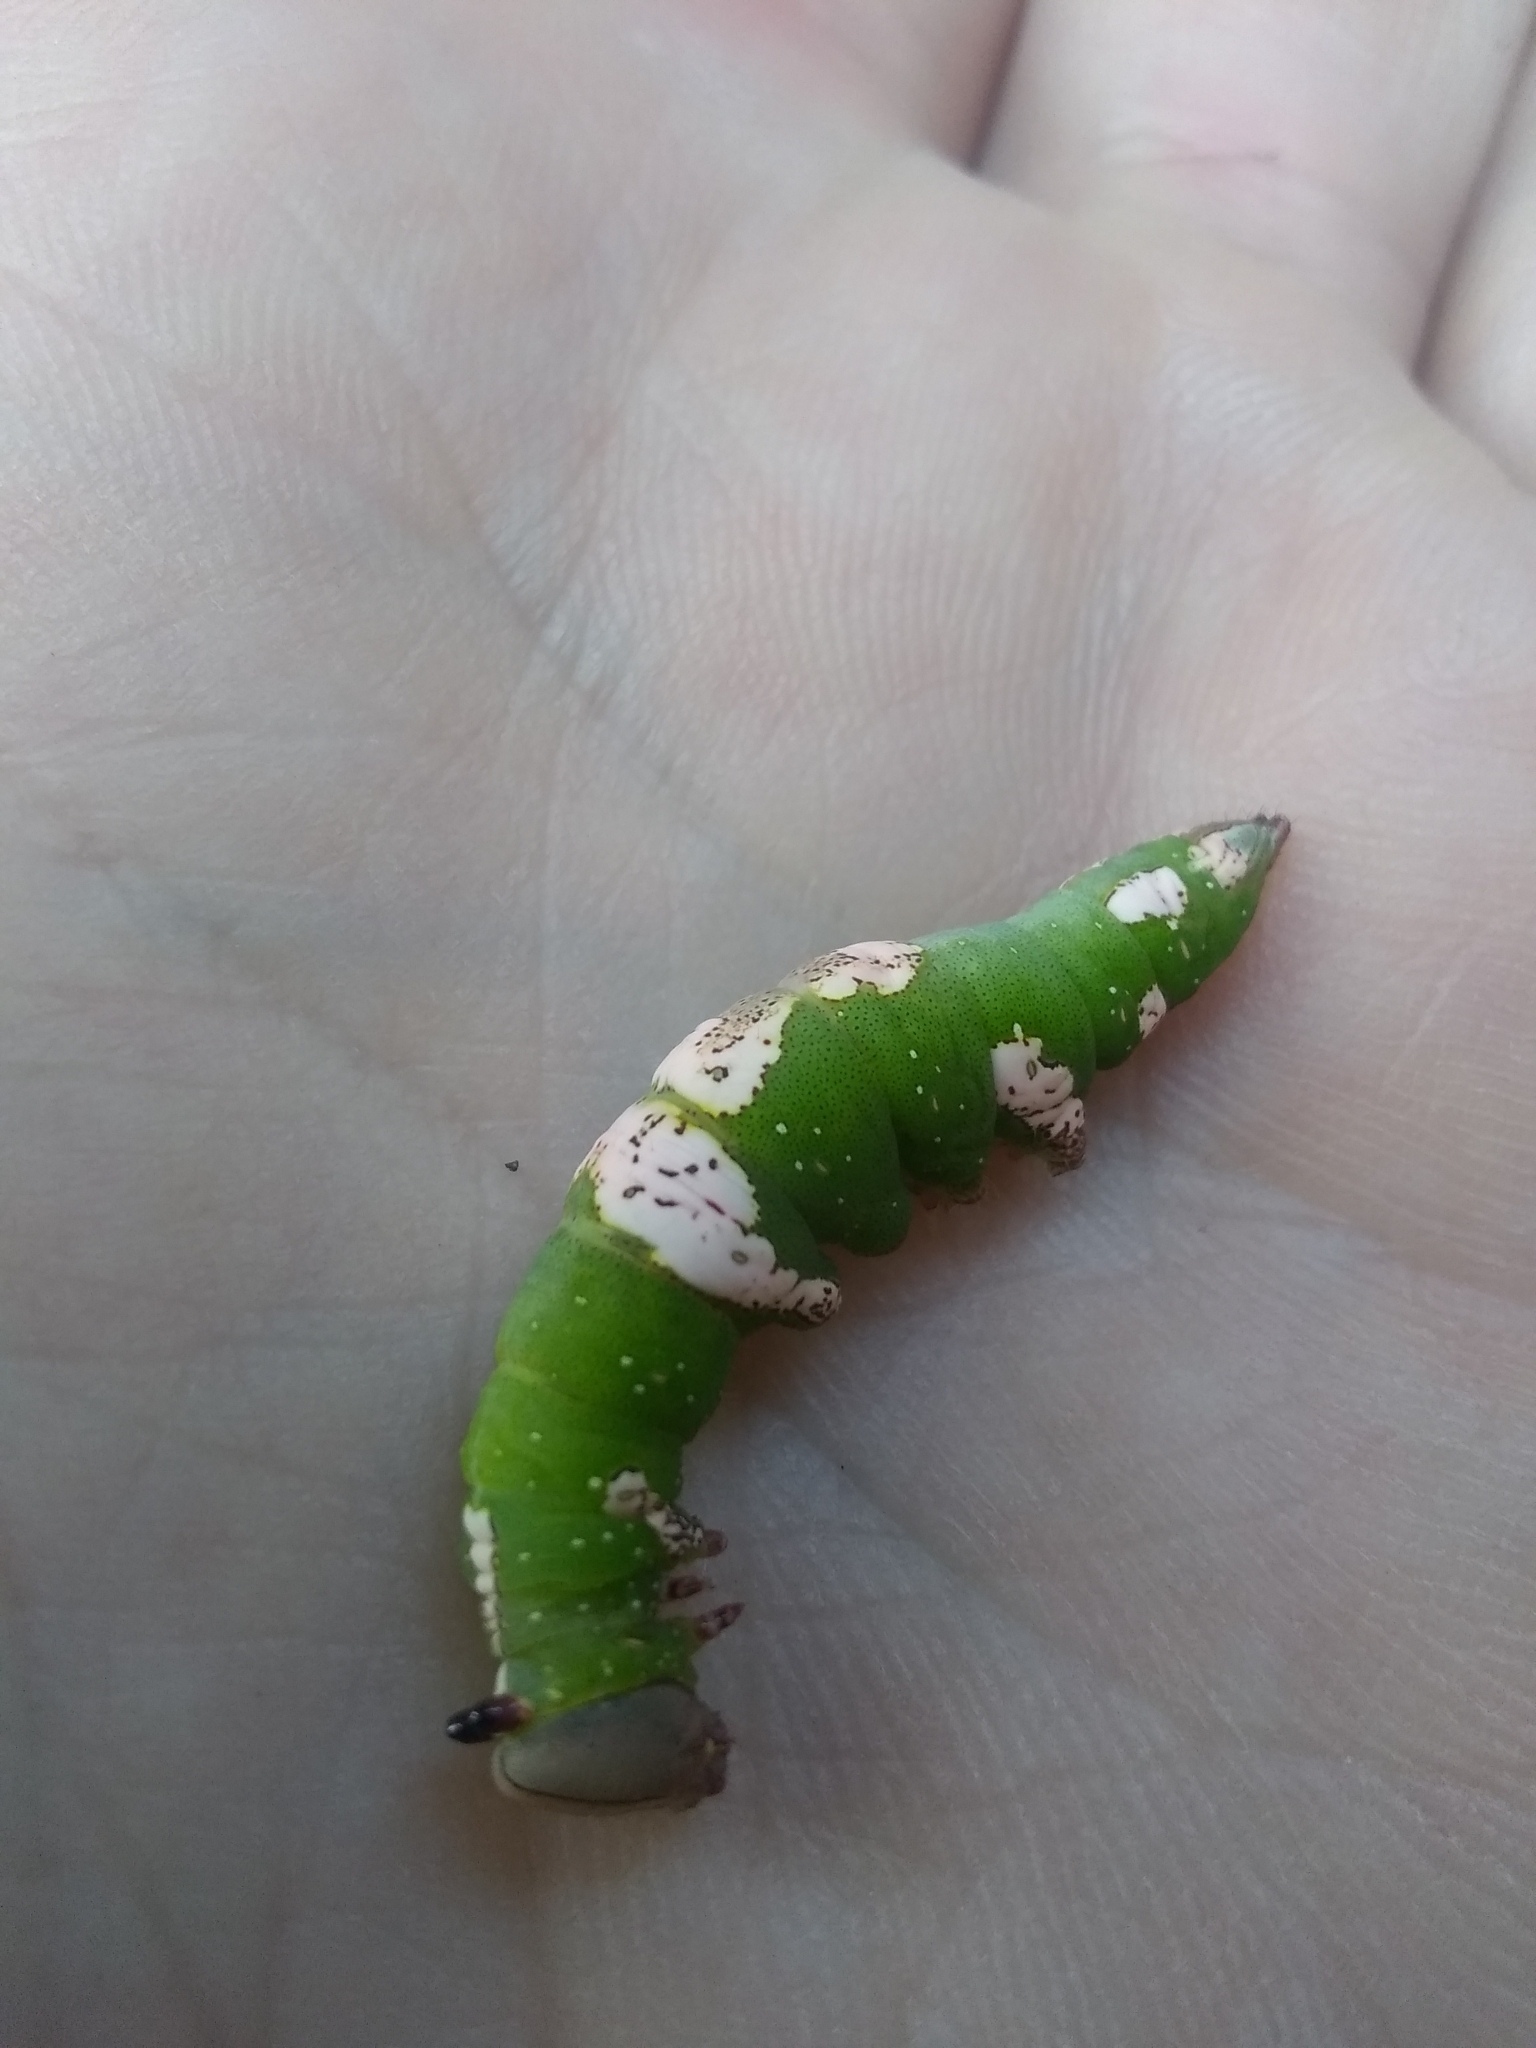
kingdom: Animalia
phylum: Arthropoda
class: Insecta
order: Lepidoptera
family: Notodontidae
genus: Heterocampa
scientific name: Heterocampa
